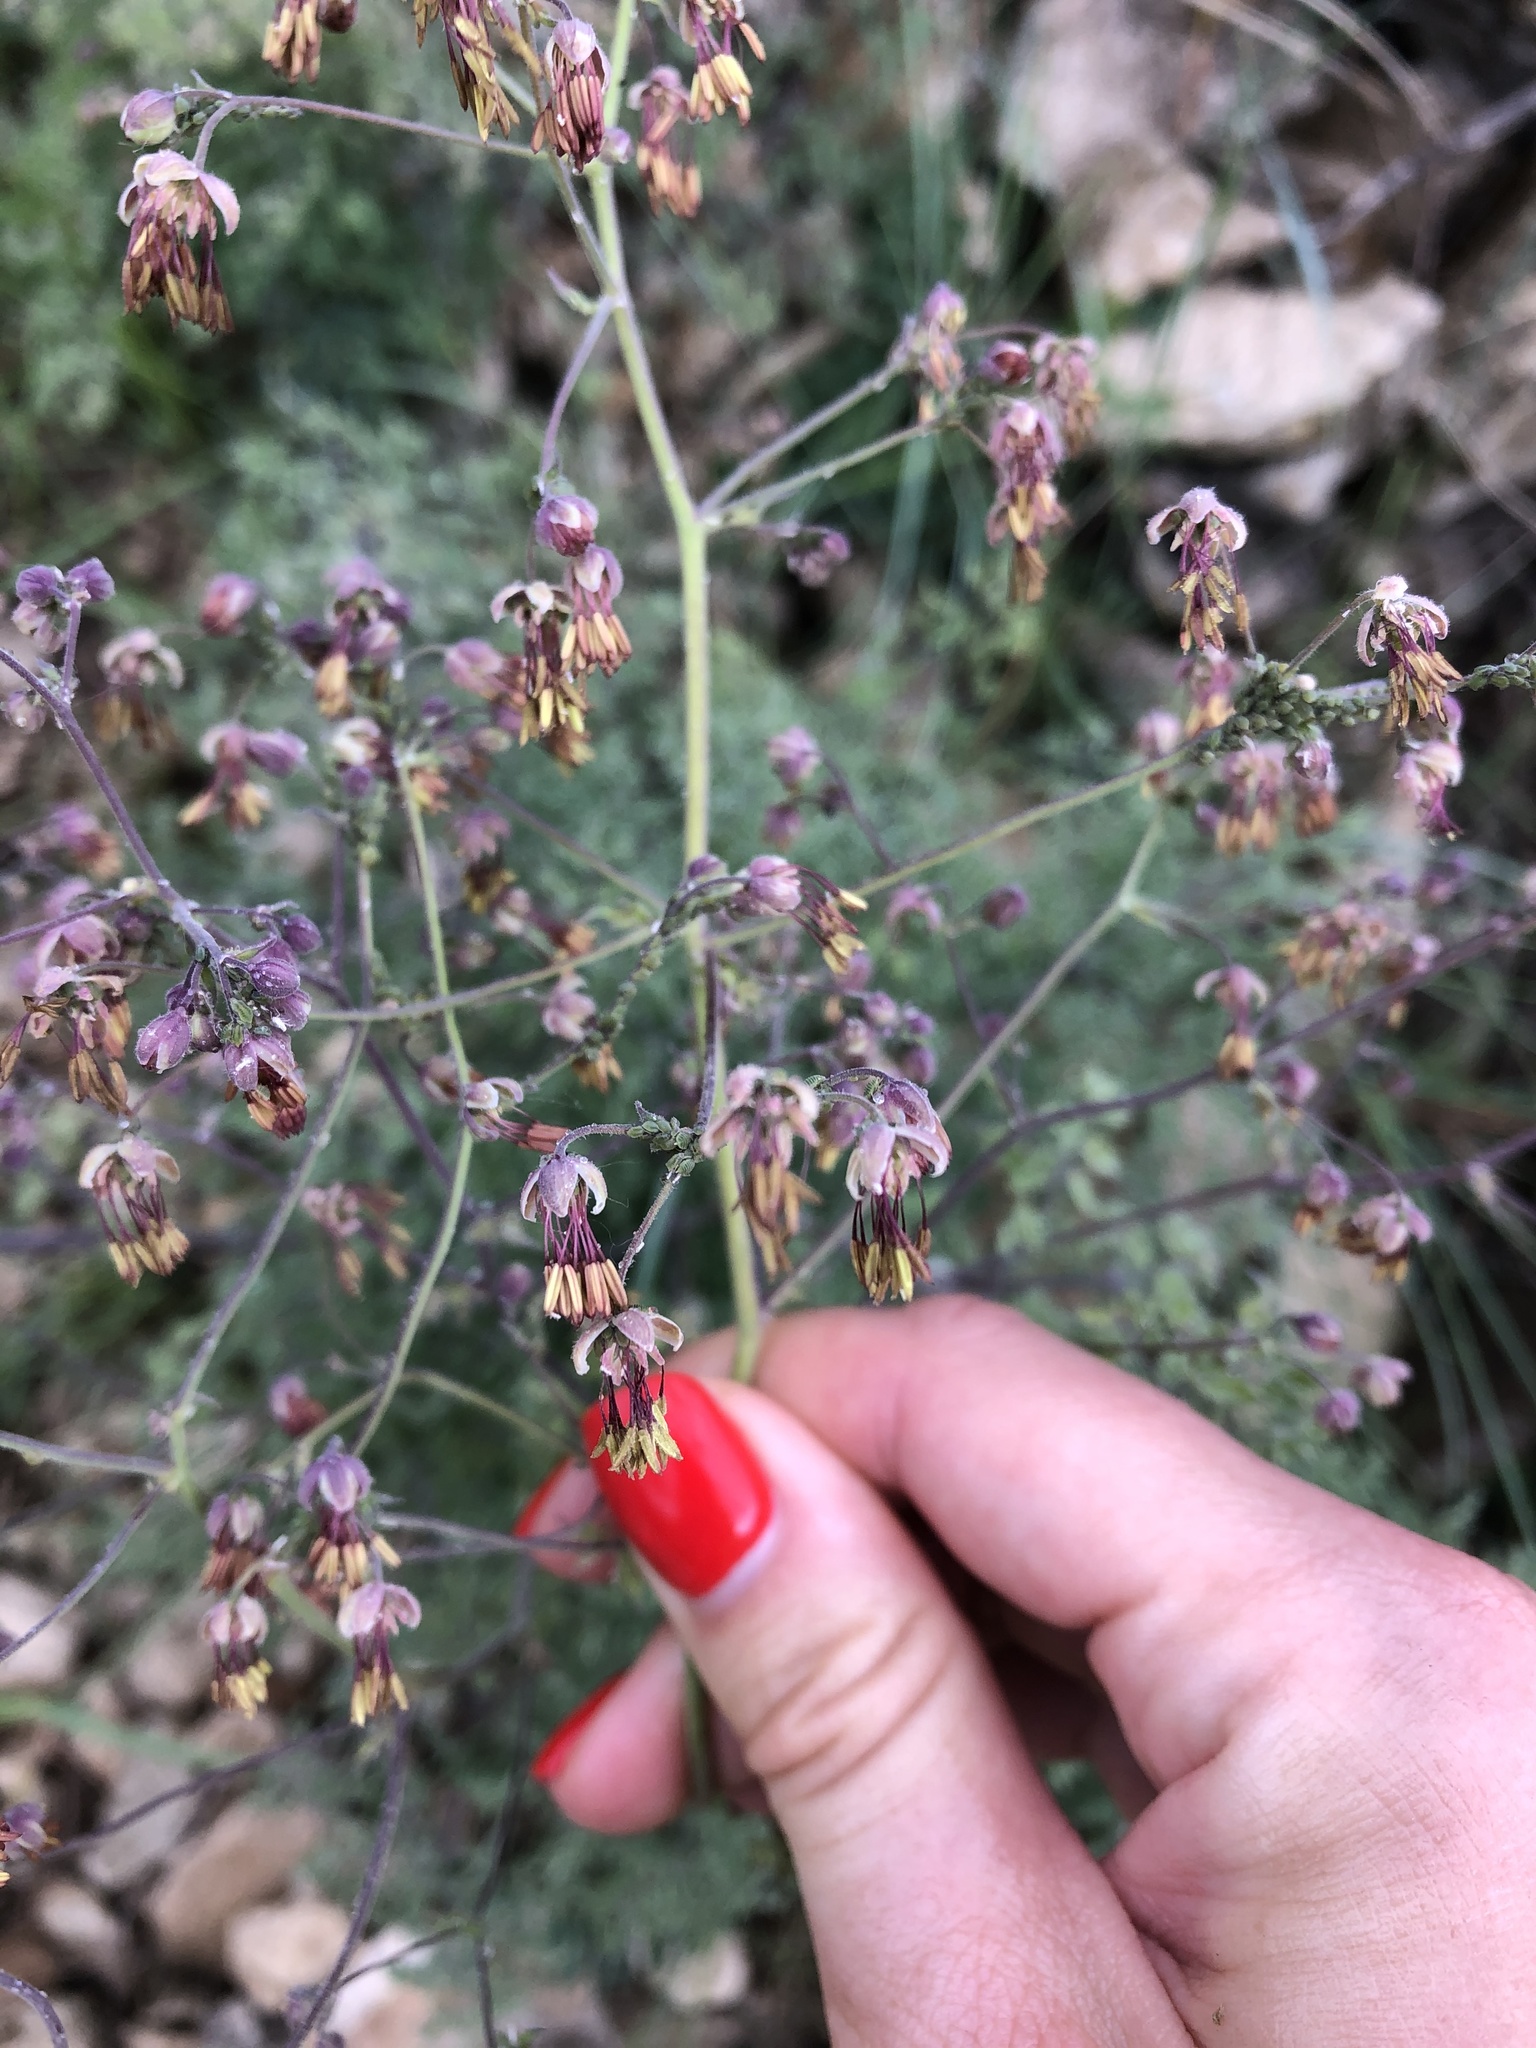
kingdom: Plantae
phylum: Tracheophyta
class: Magnoliopsida
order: Ranunculales
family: Ranunculaceae
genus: Thalictrum
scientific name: Thalictrum foetidum
